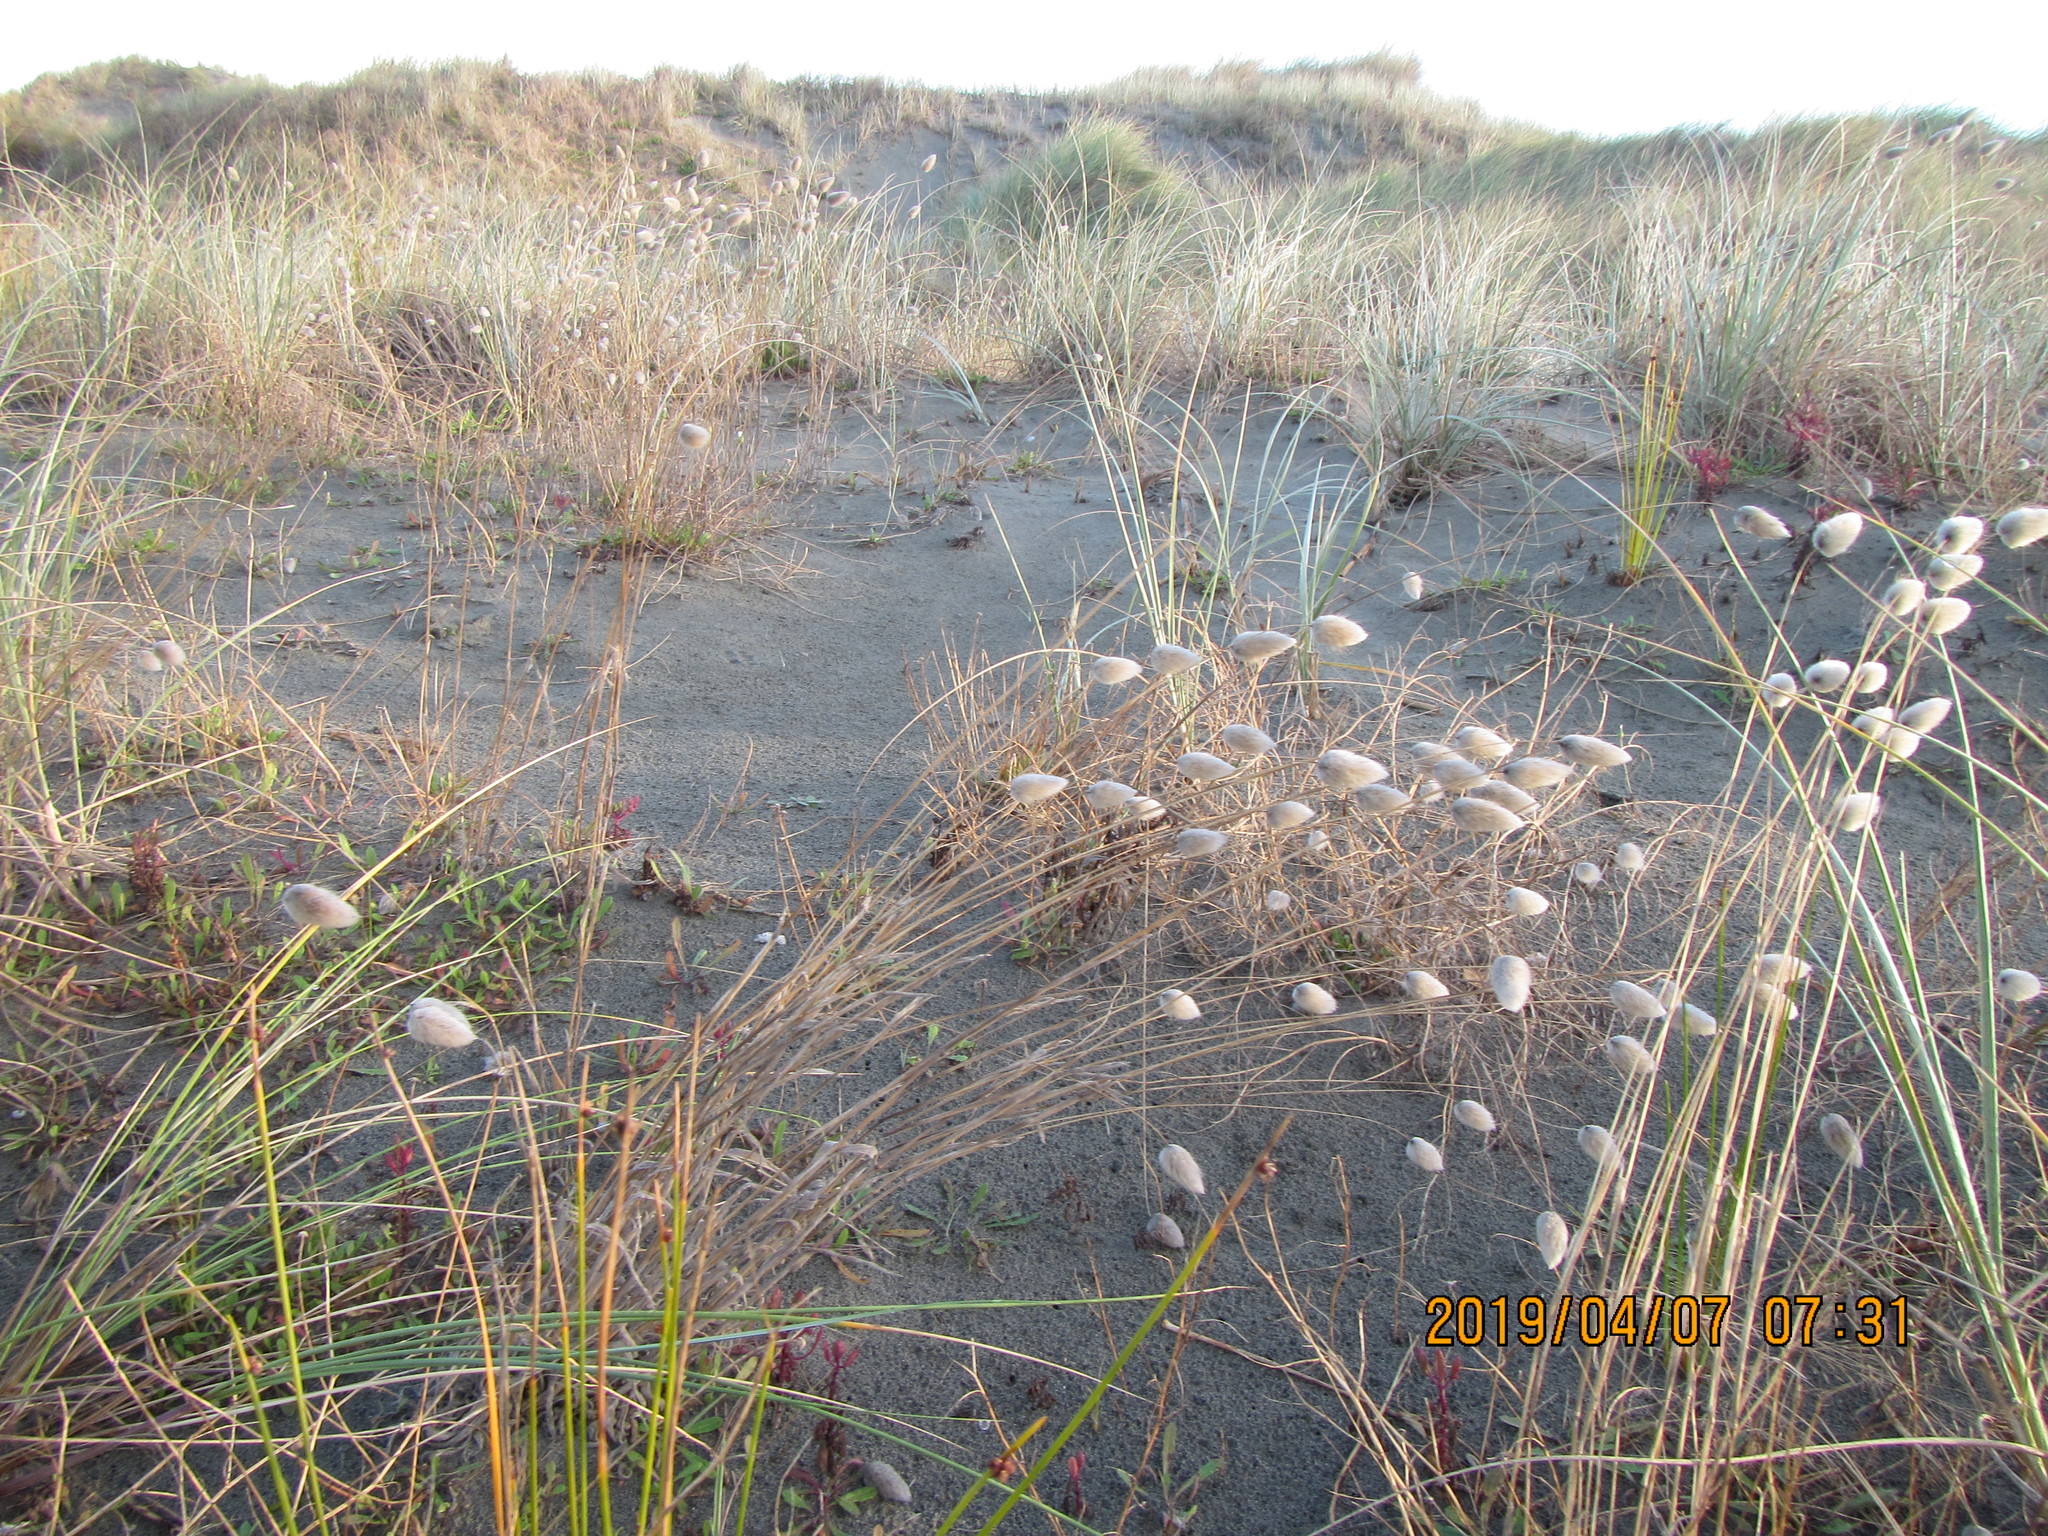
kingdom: Plantae
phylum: Tracheophyta
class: Liliopsida
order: Poales
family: Poaceae
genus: Lagurus
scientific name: Lagurus ovatus
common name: Hare's-tail
